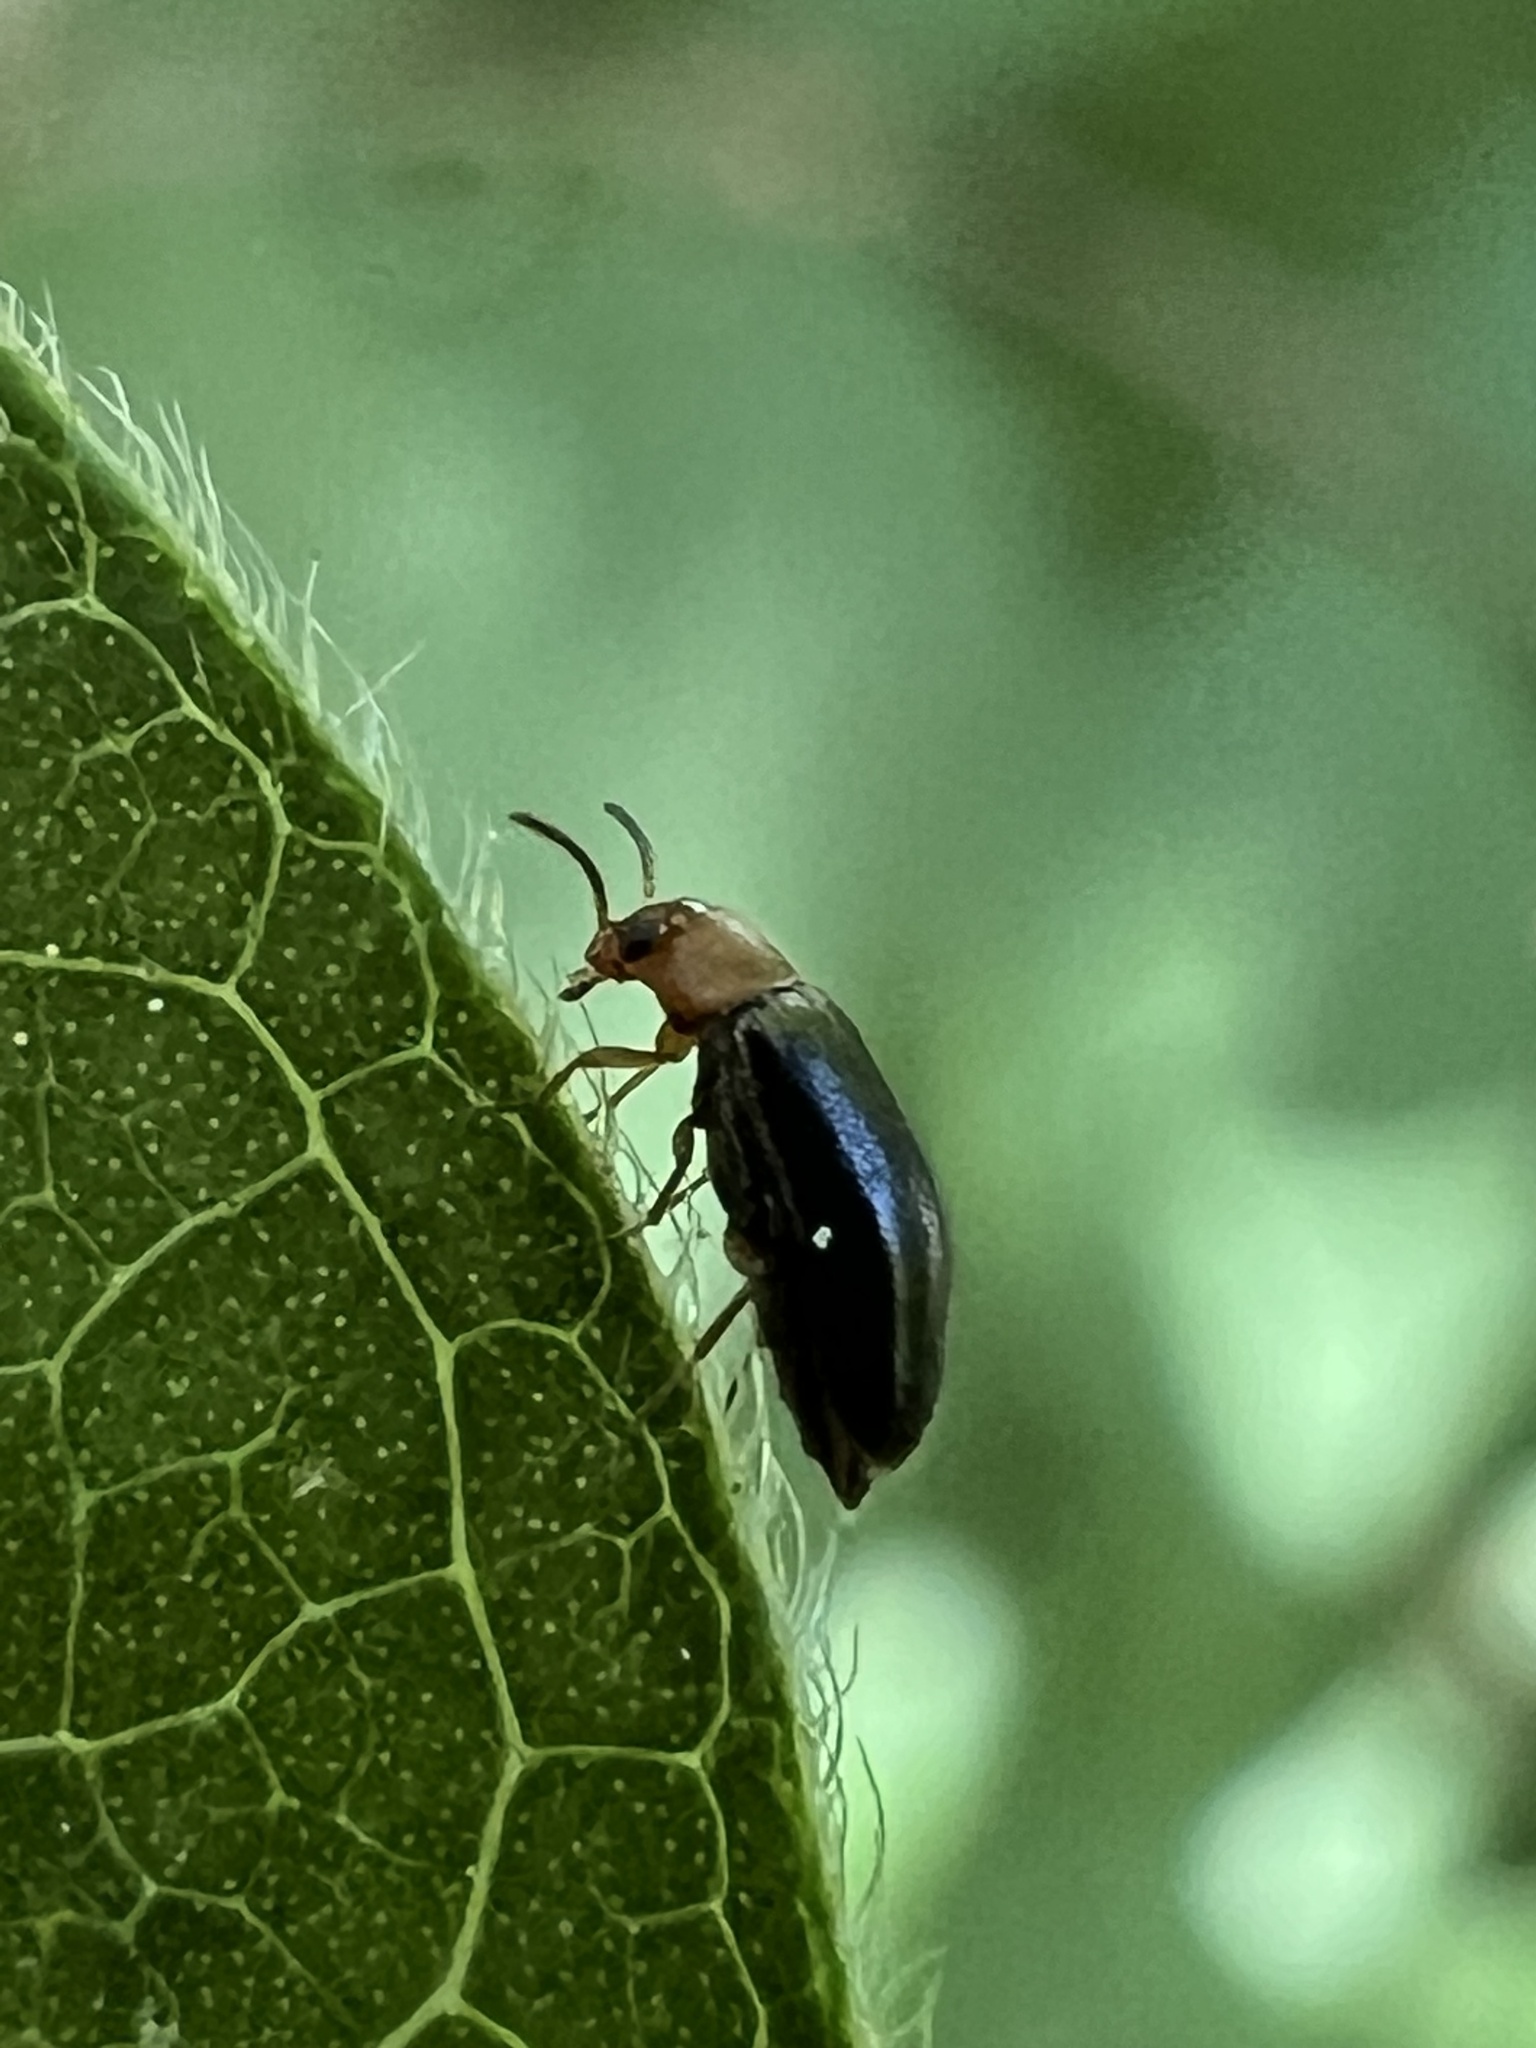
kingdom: Animalia
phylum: Arthropoda
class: Insecta
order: Coleoptera
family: Melandryidae
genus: Symphora
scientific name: Symphora flavicollis
